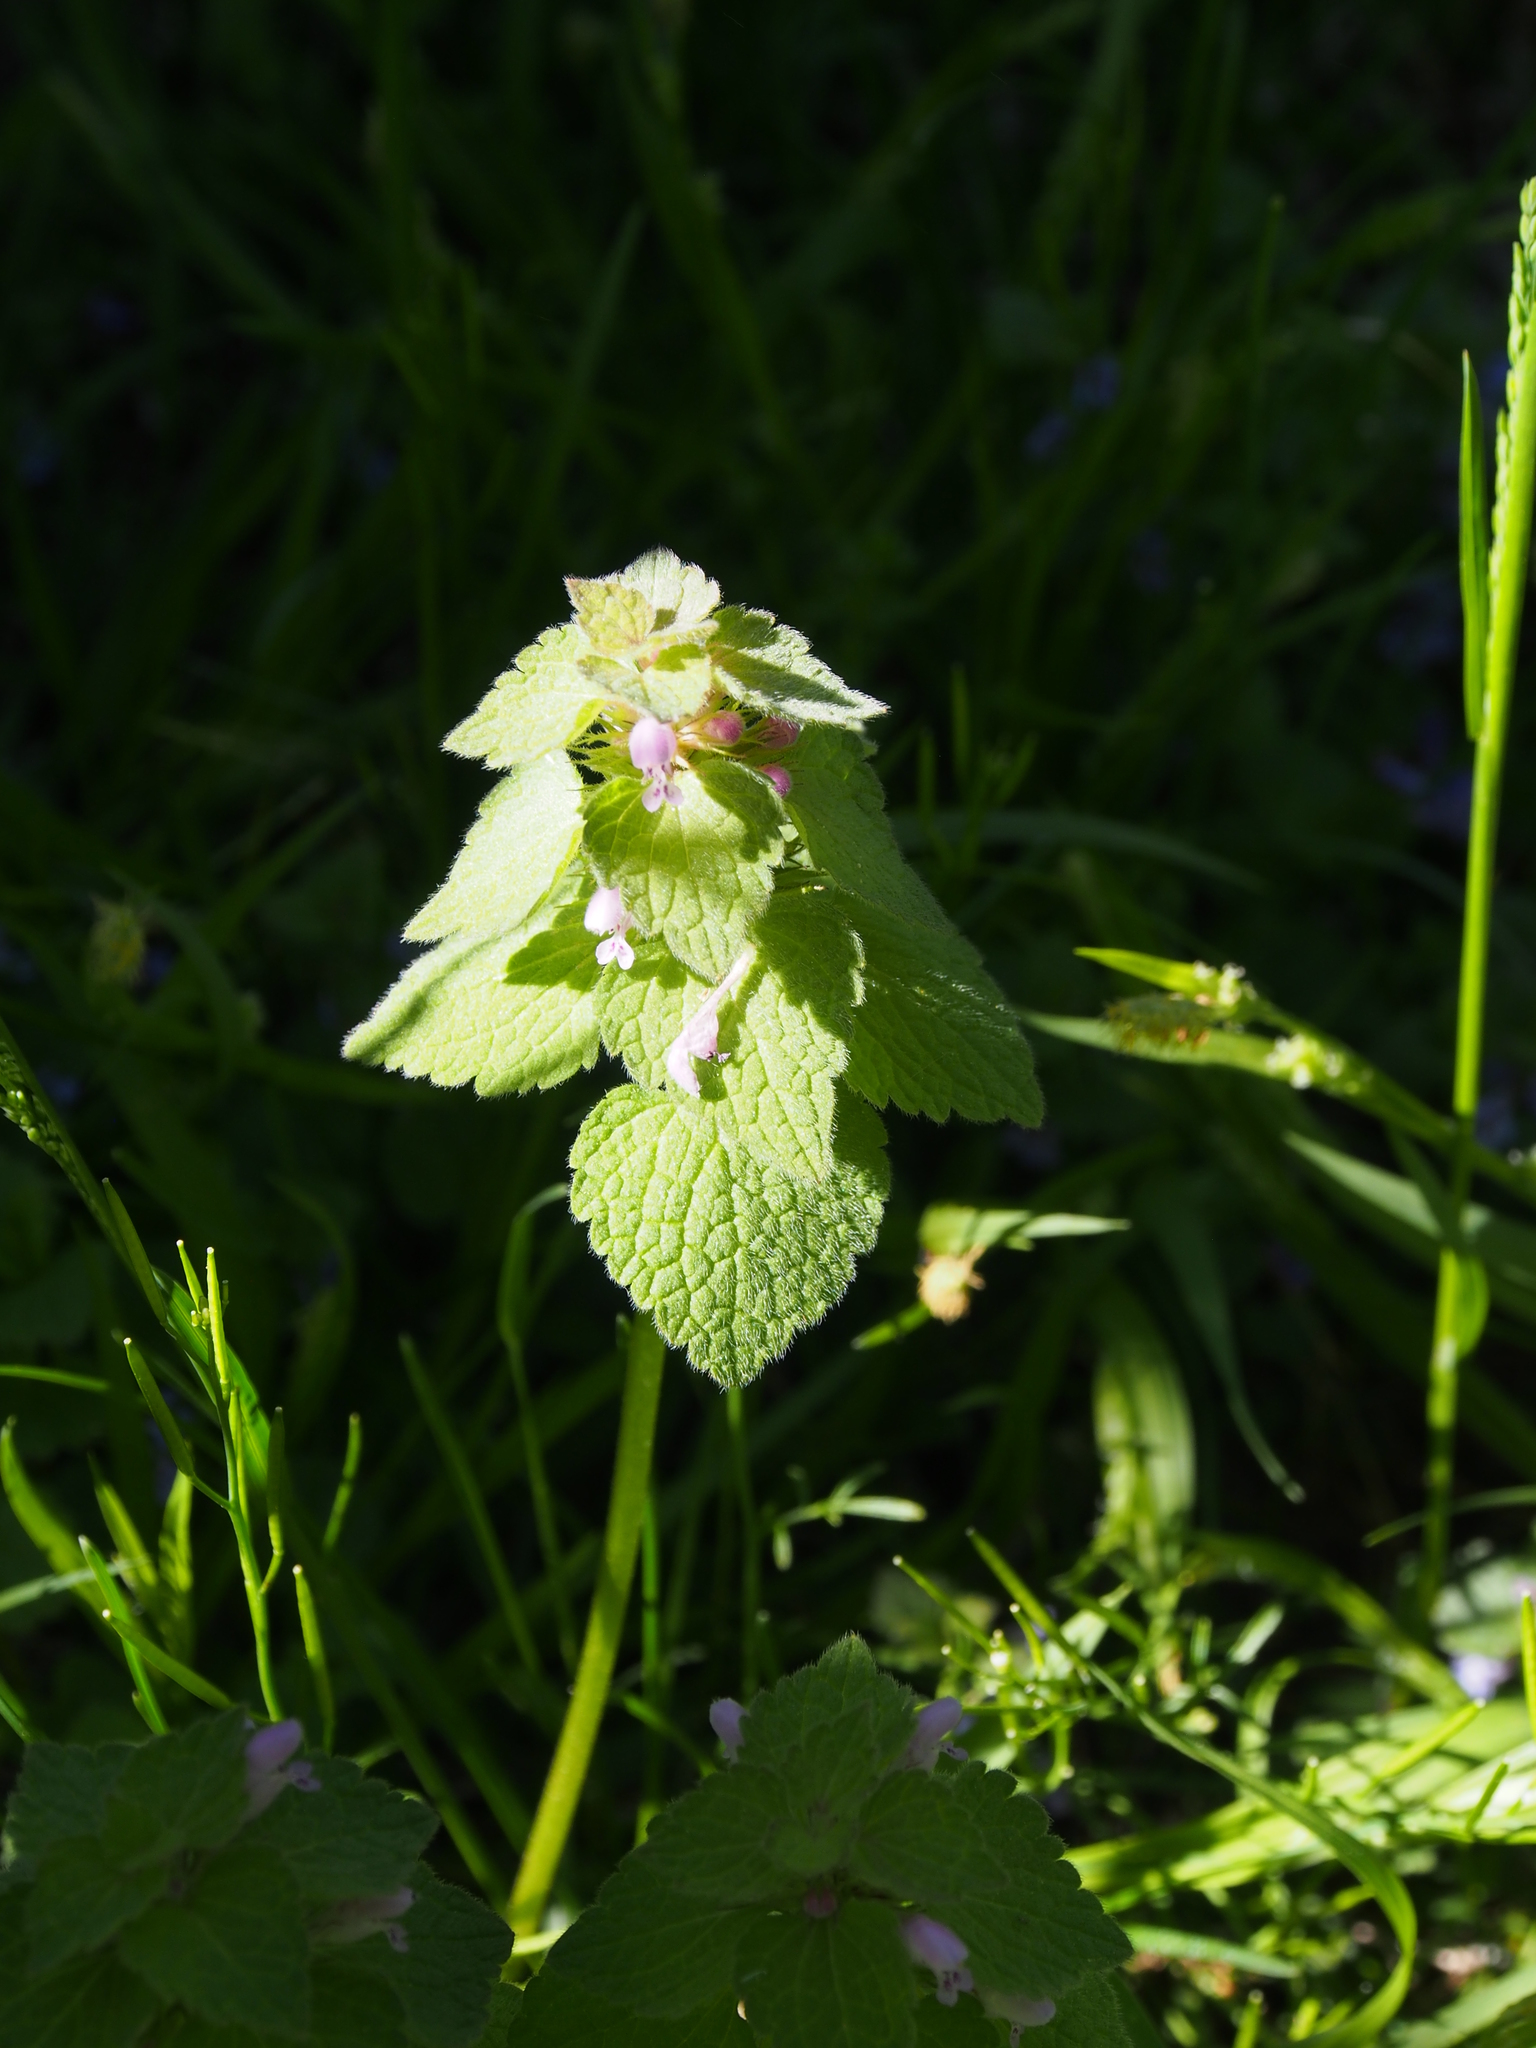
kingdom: Plantae
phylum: Tracheophyta
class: Magnoliopsida
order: Lamiales
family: Lamiaceae
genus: Lamium
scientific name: Lamium purpureum
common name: Red dead-nettle
